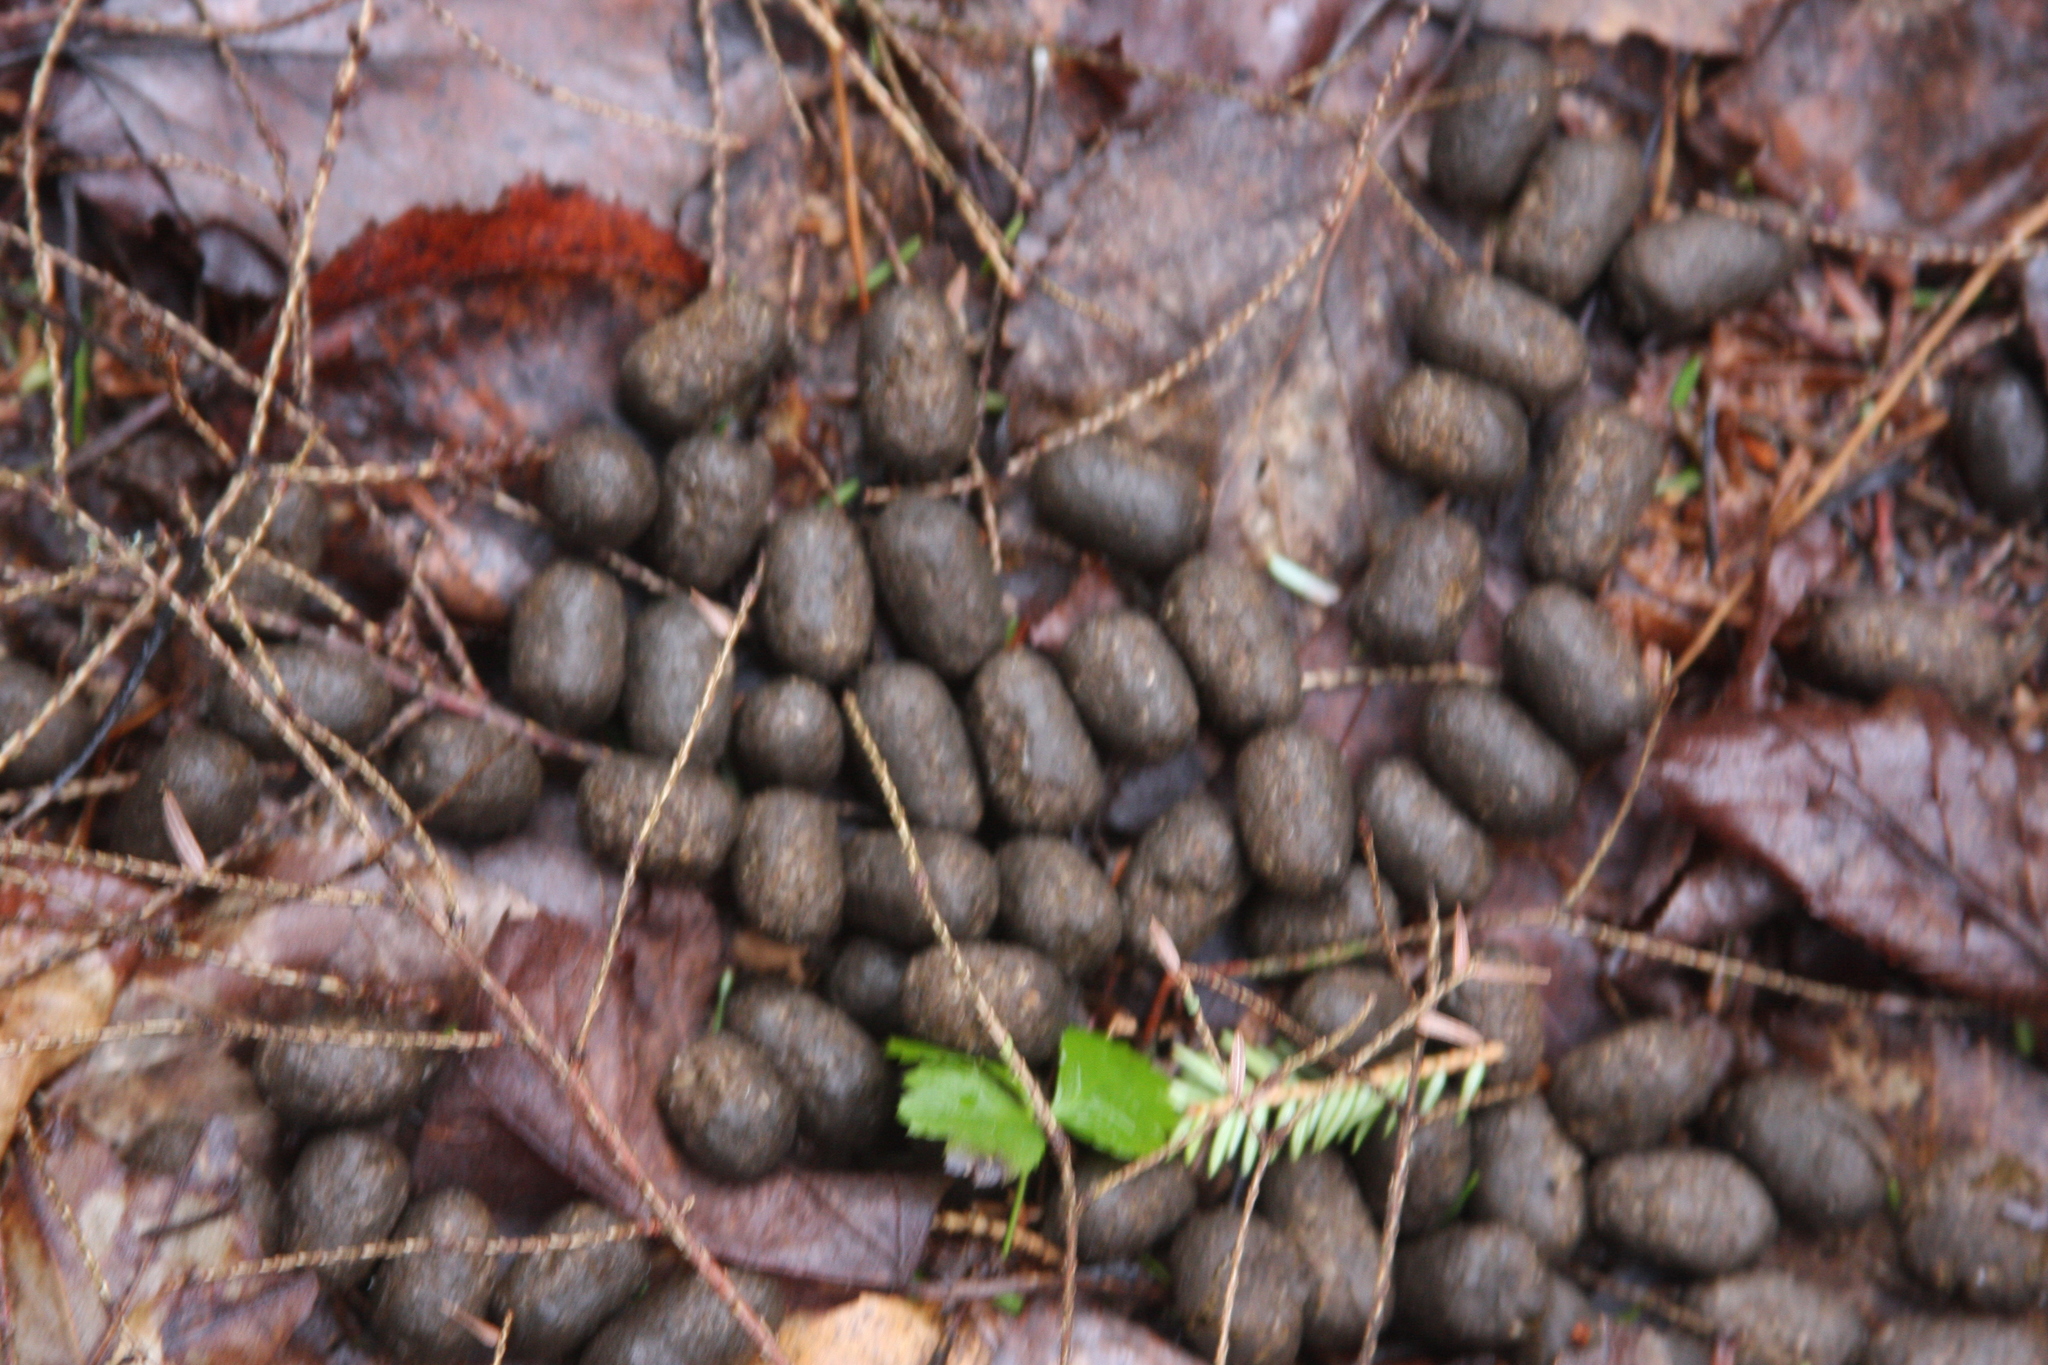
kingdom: Animalia
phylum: Chordata
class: Mammalia
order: Artiodactyla
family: Cervidae
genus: Odocoileus
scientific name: Odocoileus virginianus
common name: White-tailed deer
